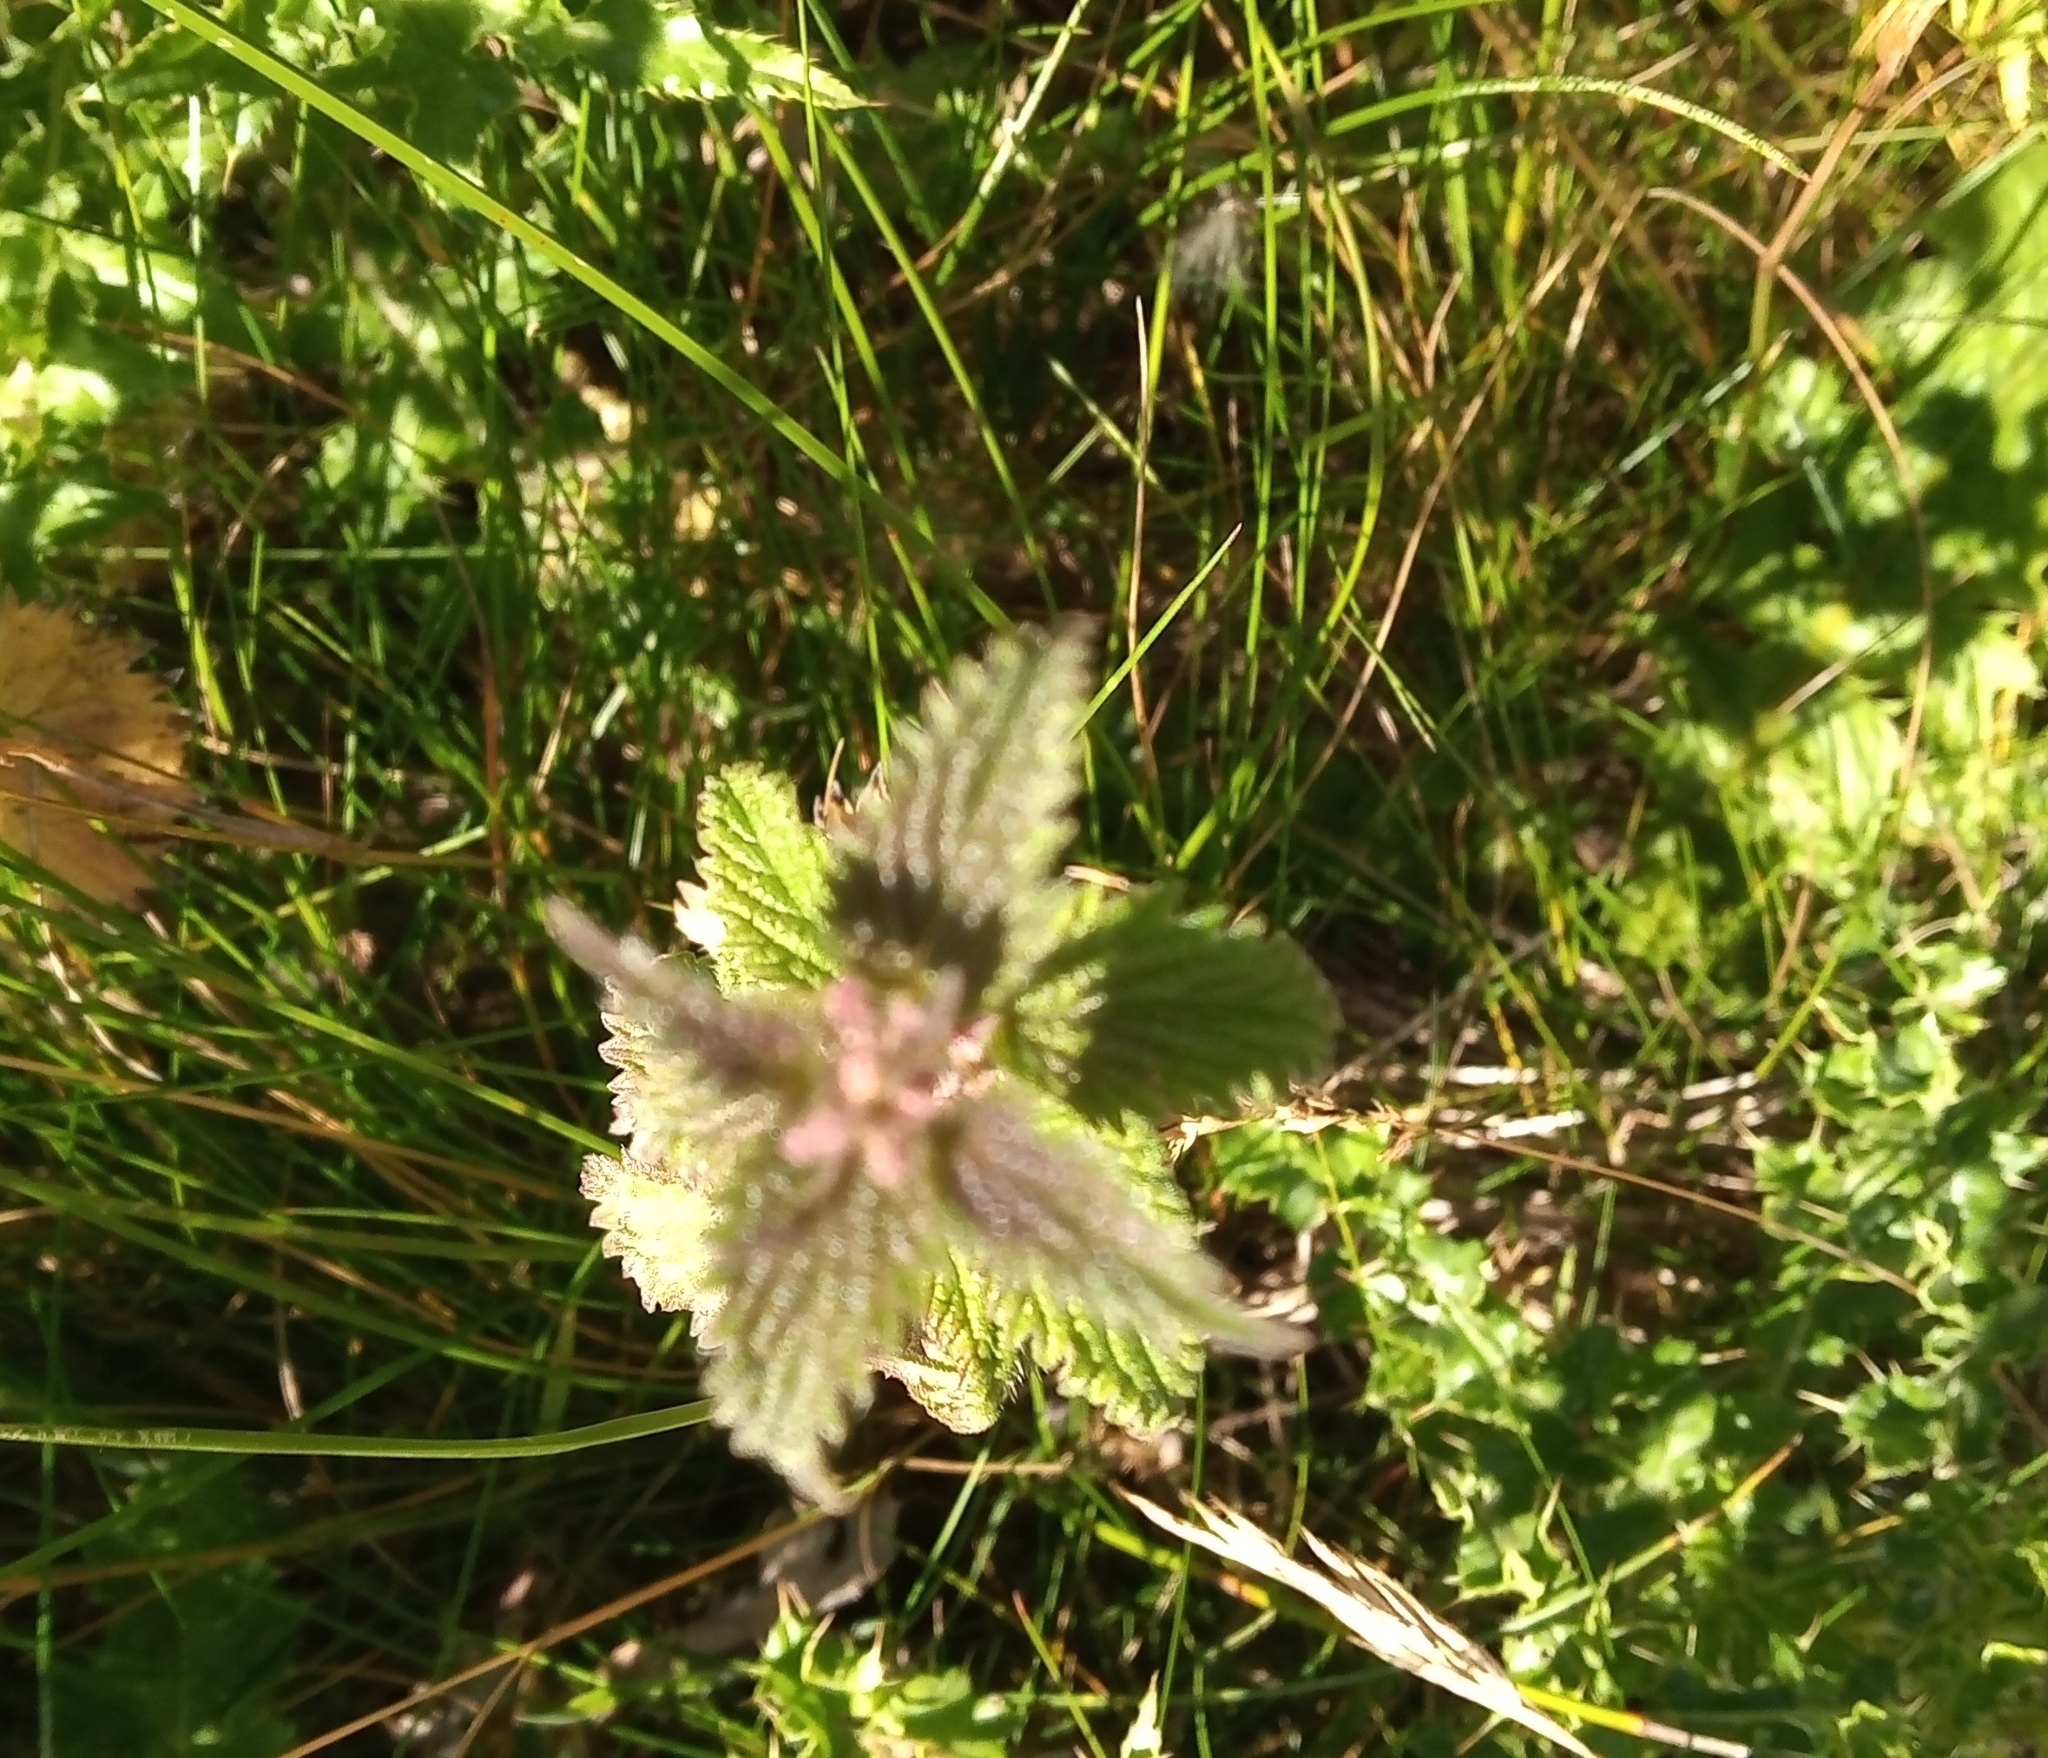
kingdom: Plantae
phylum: Tracheophyta
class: Magnoliopsida
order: Rosales
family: Urticaceae
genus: Urtica
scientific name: Urtica dioica
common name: Common nettle
